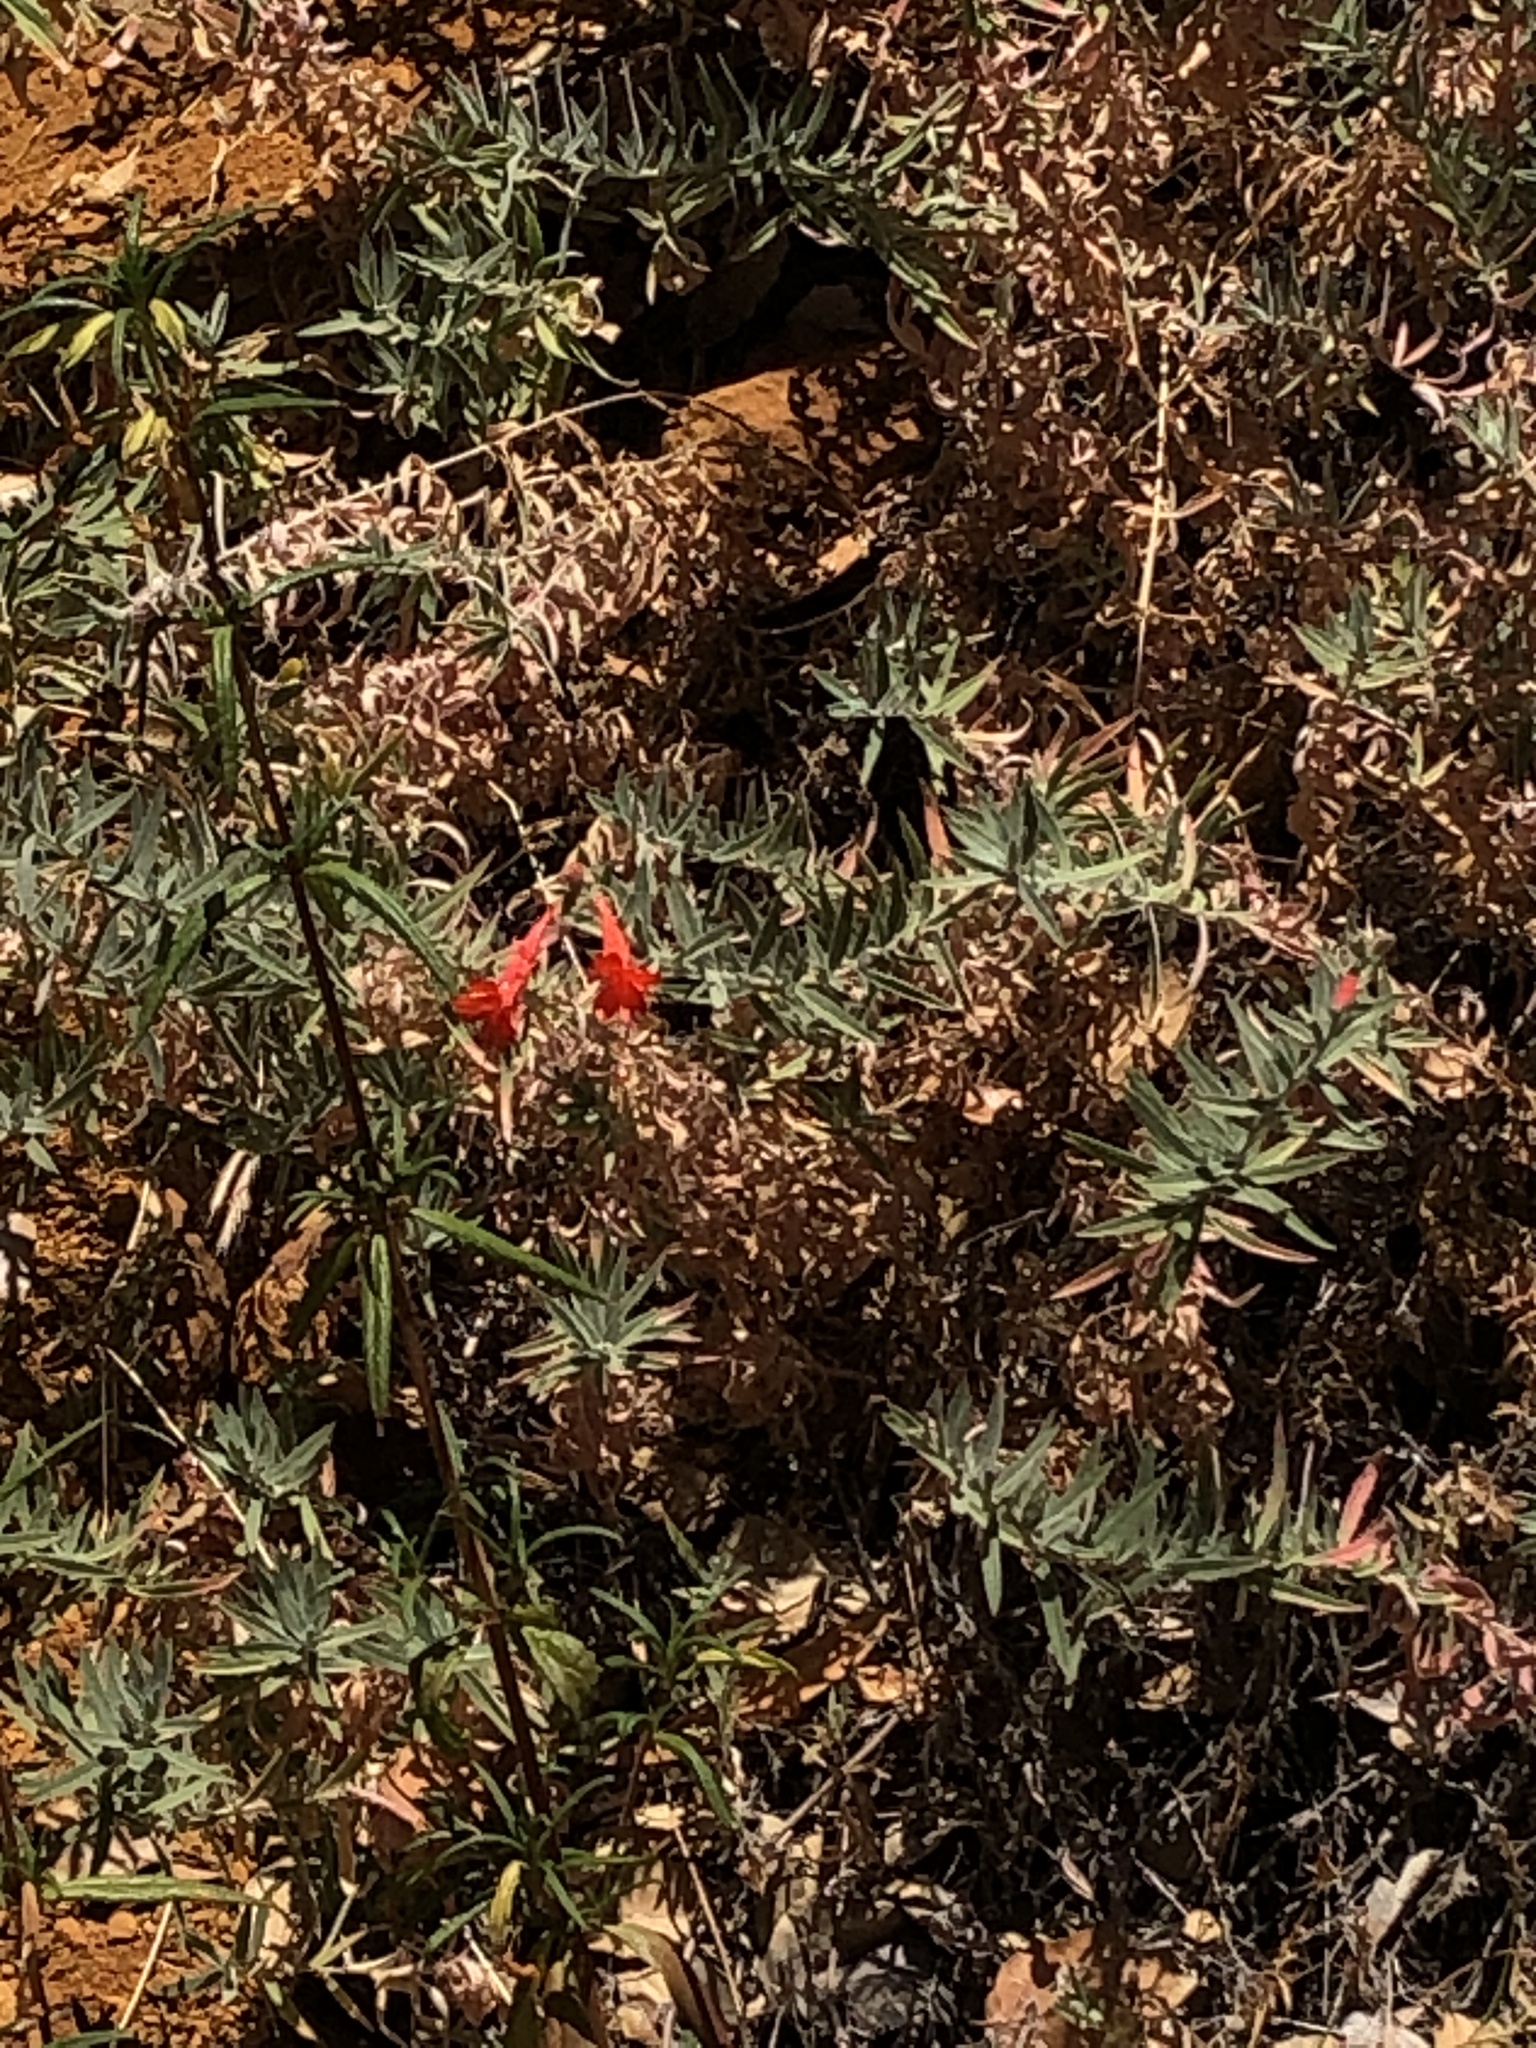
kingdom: Plantae
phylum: Tracheophyta
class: Magnoliopsida
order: Myrtales
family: Onagraceae
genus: Epilobium
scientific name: Epilobium canum
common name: California-fuchsia
